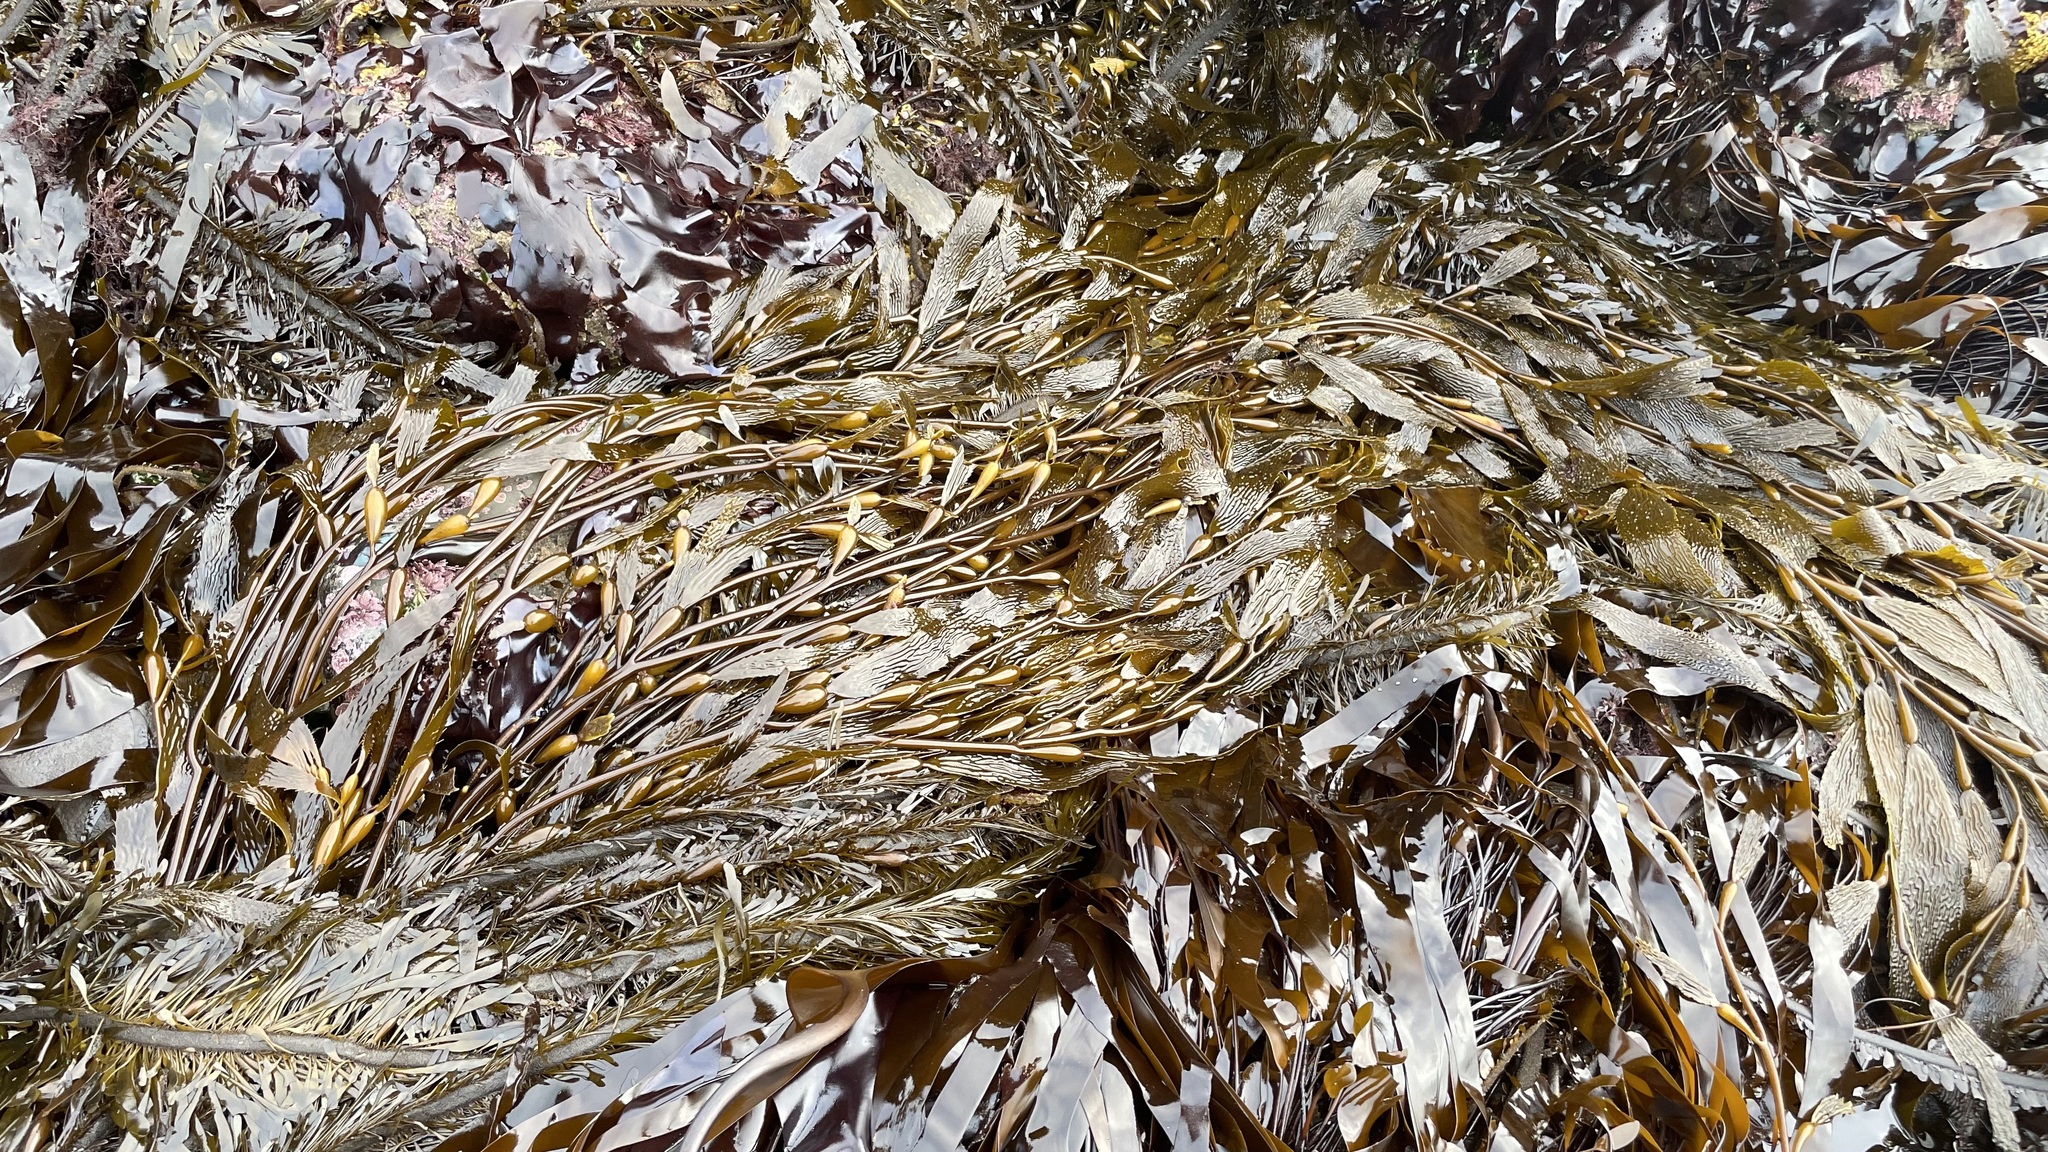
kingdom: Chromista
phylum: Ochrophyta
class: Phaeophyceae
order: Laminariales
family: Laminariaceae
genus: Macrocystis
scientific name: Macrocystis pyrifera
